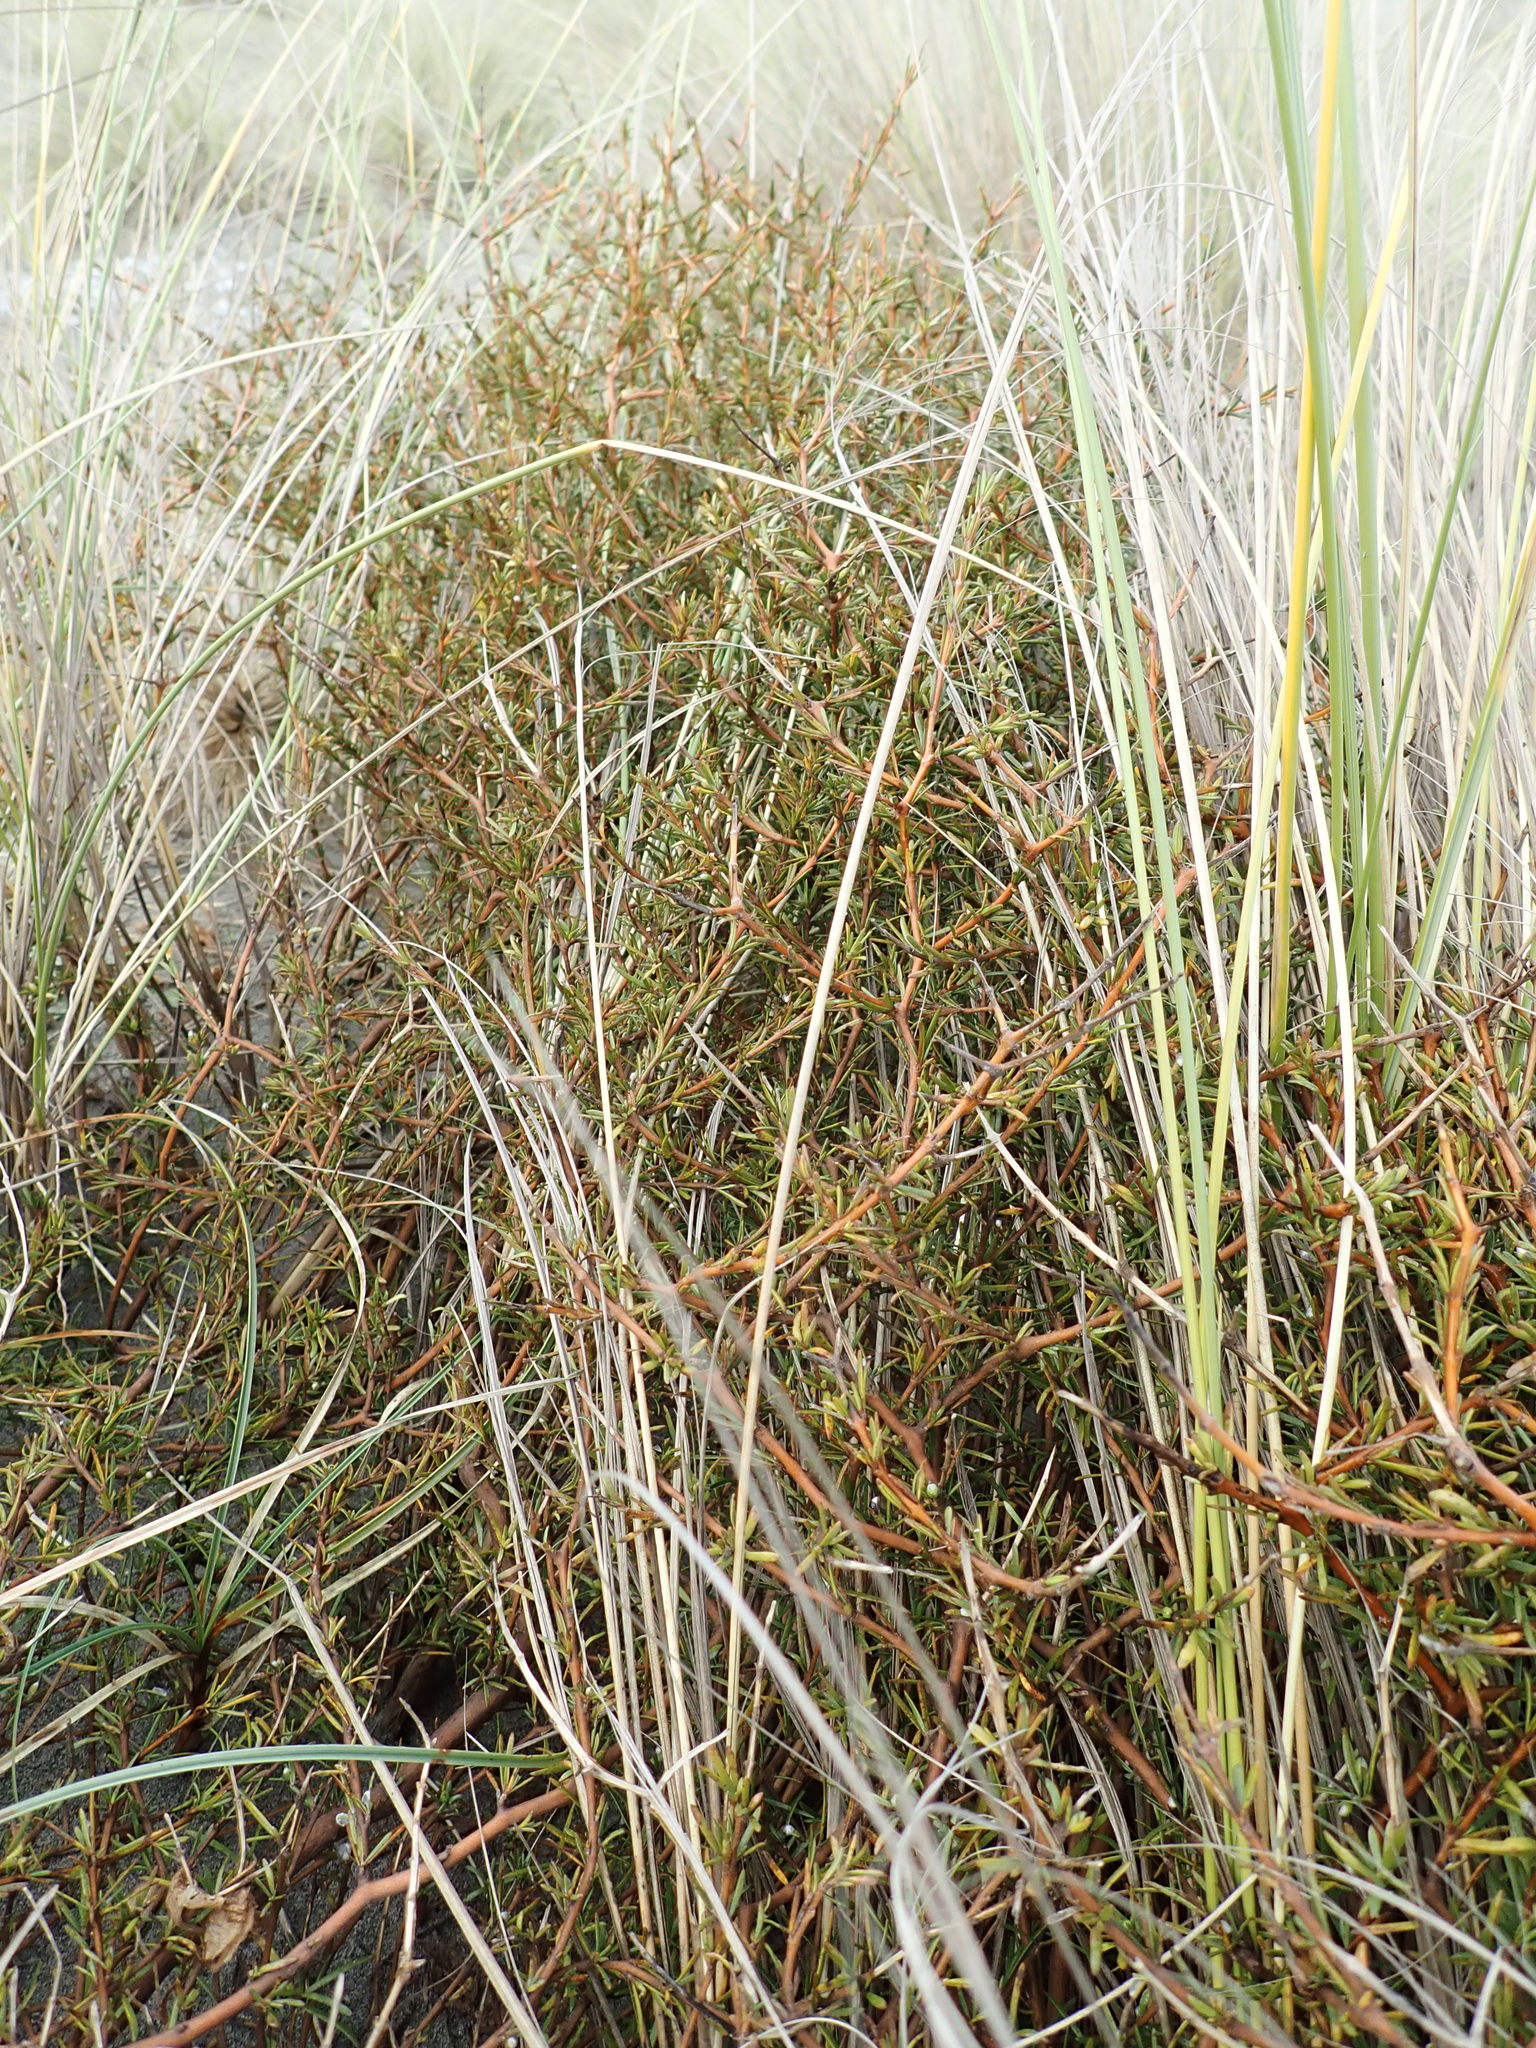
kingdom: Plantae
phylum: Tracheophyta
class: Magnoliopsida
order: Gentianales
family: Rubiaceae
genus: Coprosma
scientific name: Coprosma acerosa
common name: Sand coprosma
